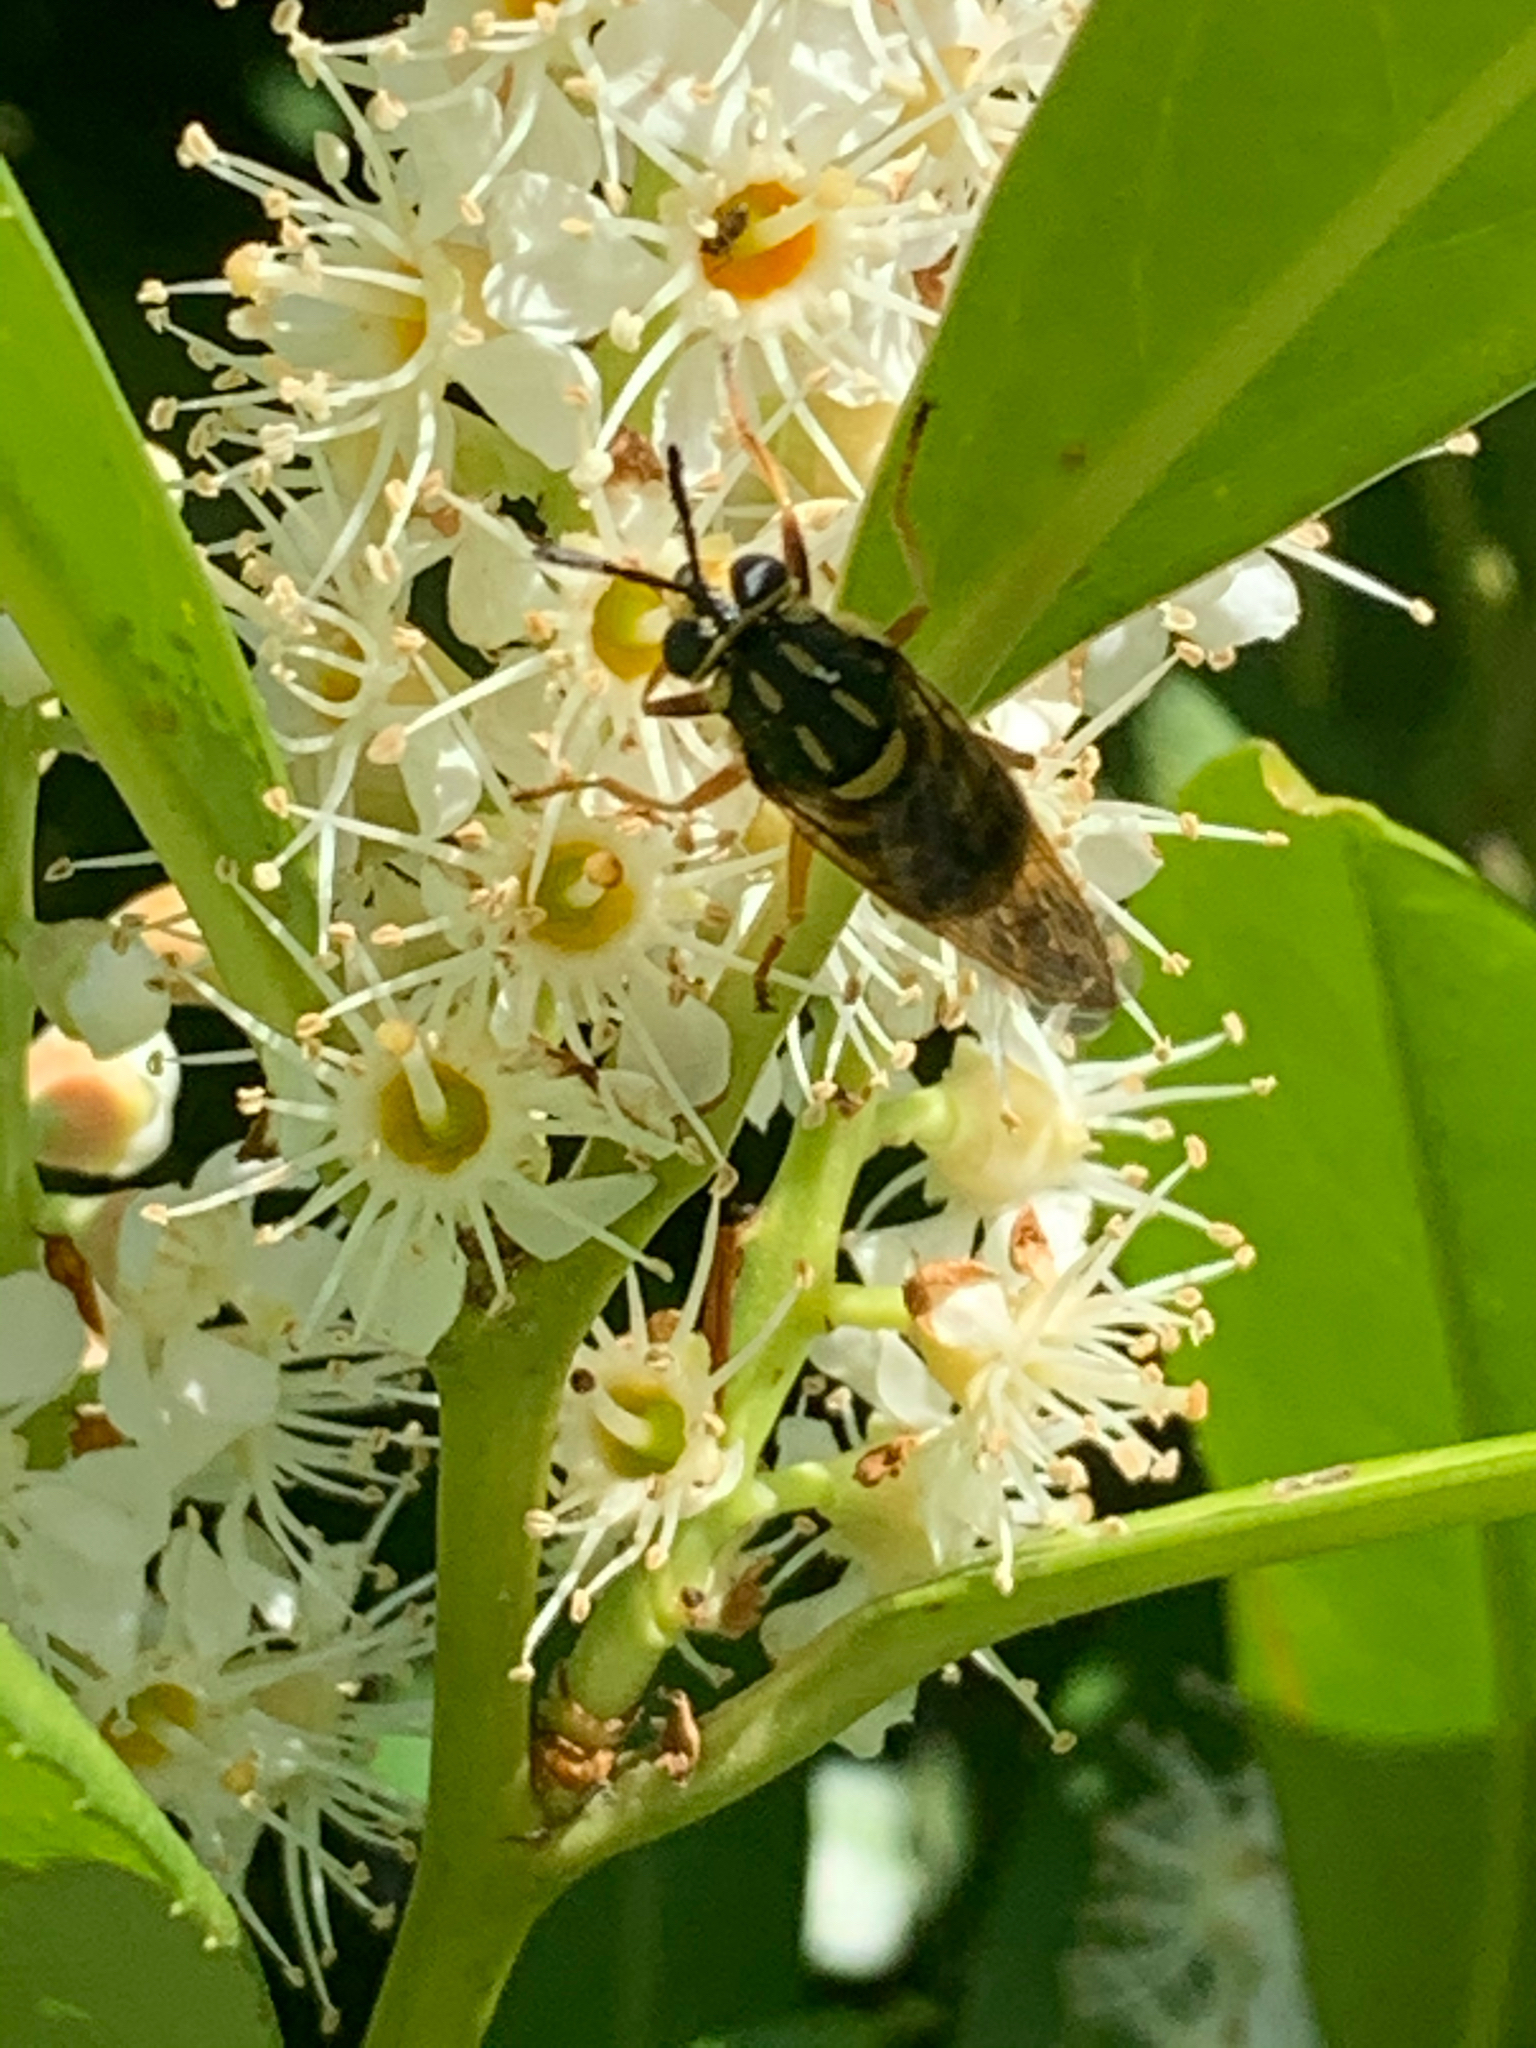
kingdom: Animalia
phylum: Arthropoda
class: Insecta
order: Diptera
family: Syrphidae
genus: Sphecomyia
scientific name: Sphecomyia vittata
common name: Long-horned yellowjacket fly
